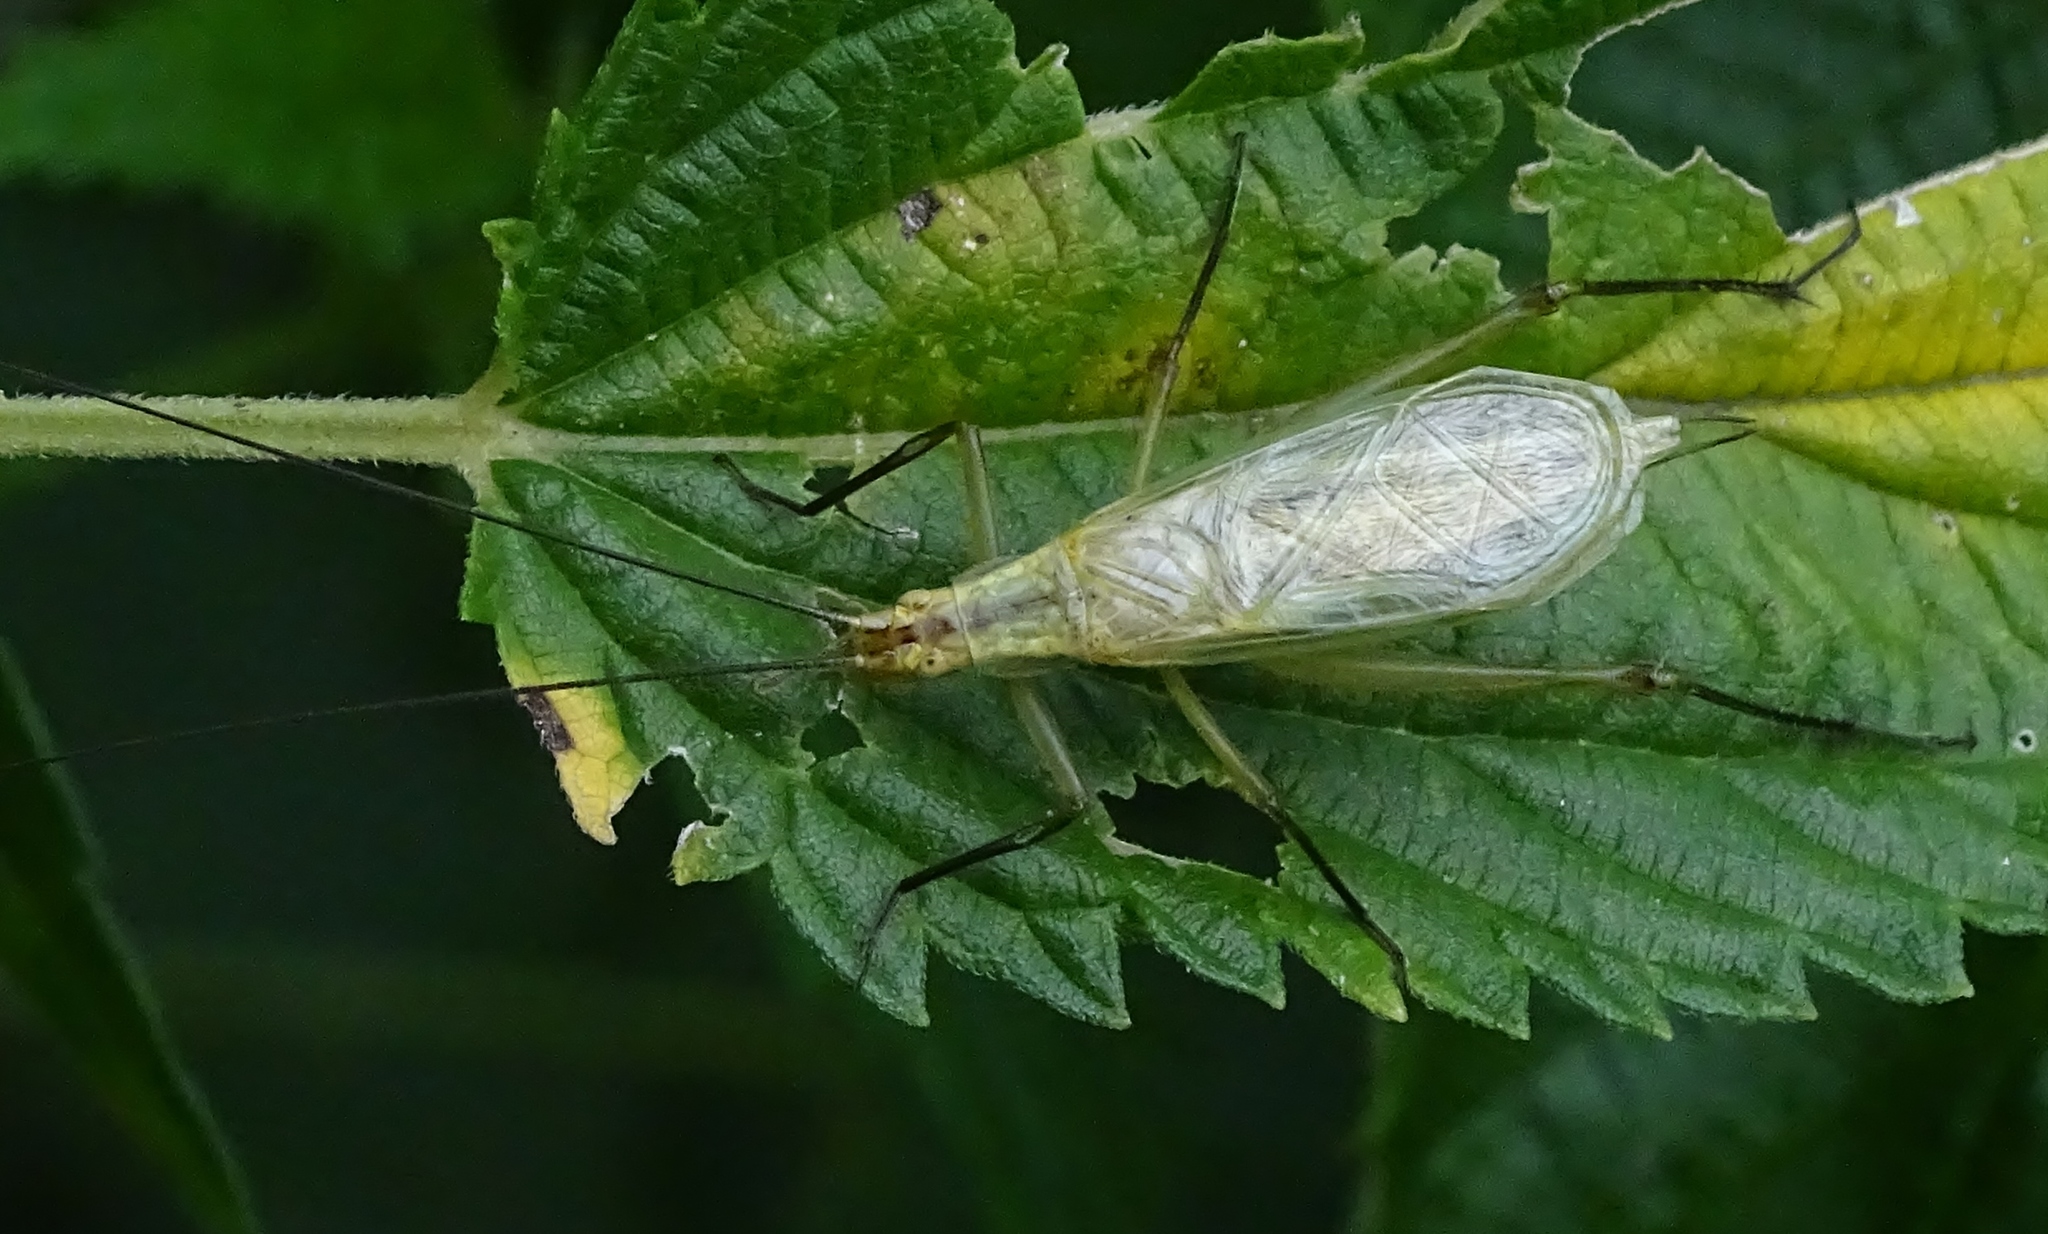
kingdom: Animalia
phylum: Arthropoda
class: Insecta
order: Orthoptera
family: Gryllidae
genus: Oecanthus
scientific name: Oecanthus nigricornis
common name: Black-horned tree cricket
